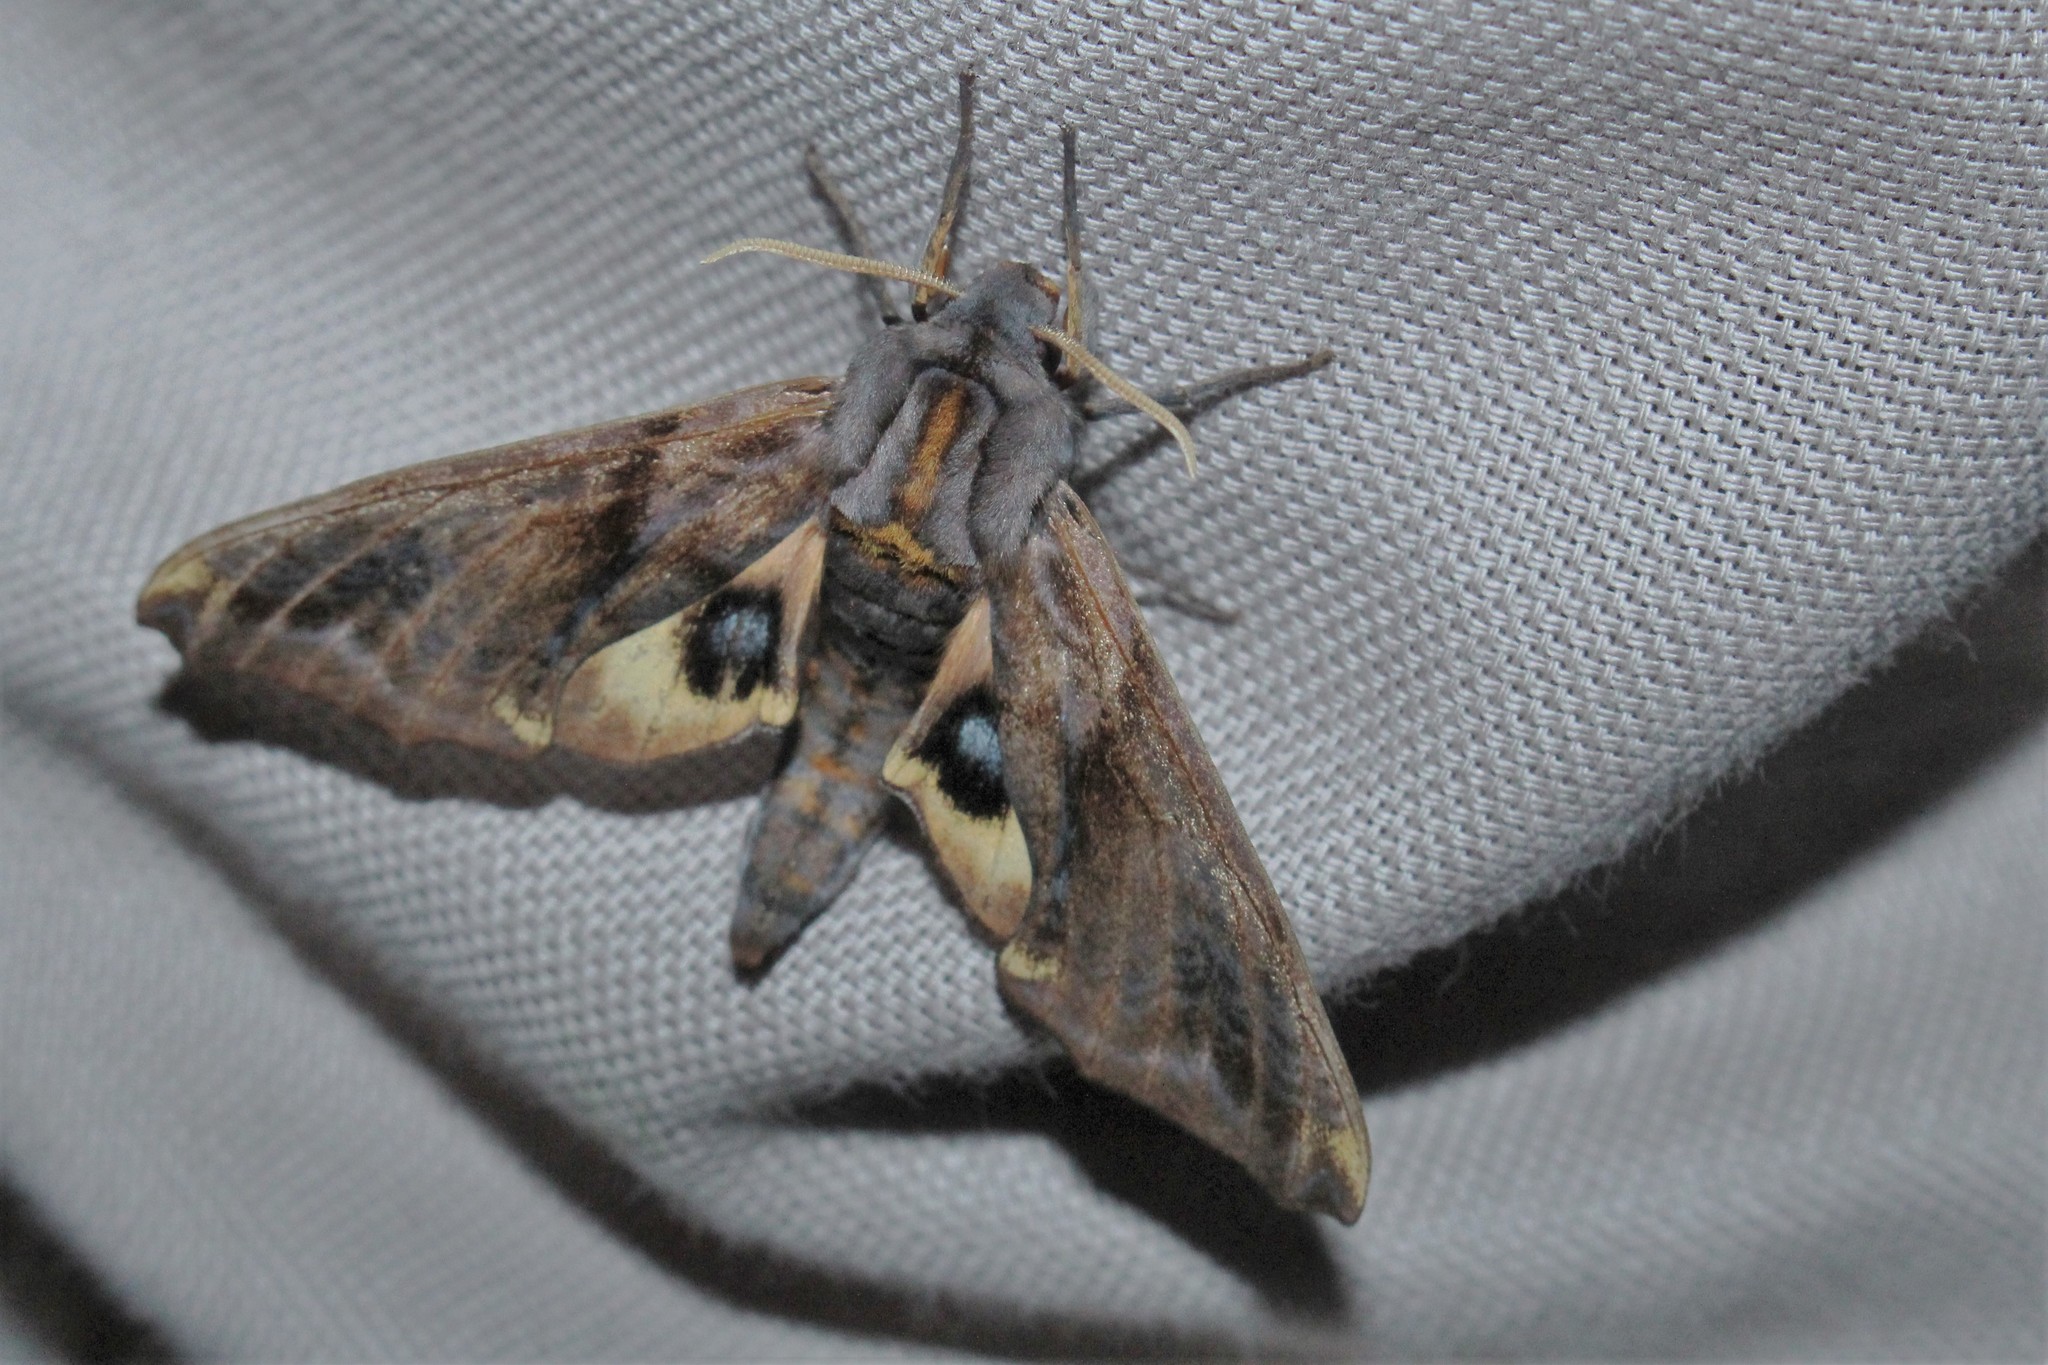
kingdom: Animalia
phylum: Arthropoda
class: Insecta
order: Lepidoptera
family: Sphingidae
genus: Paonias
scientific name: Paonias myops
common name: Small-eyed sphinx
